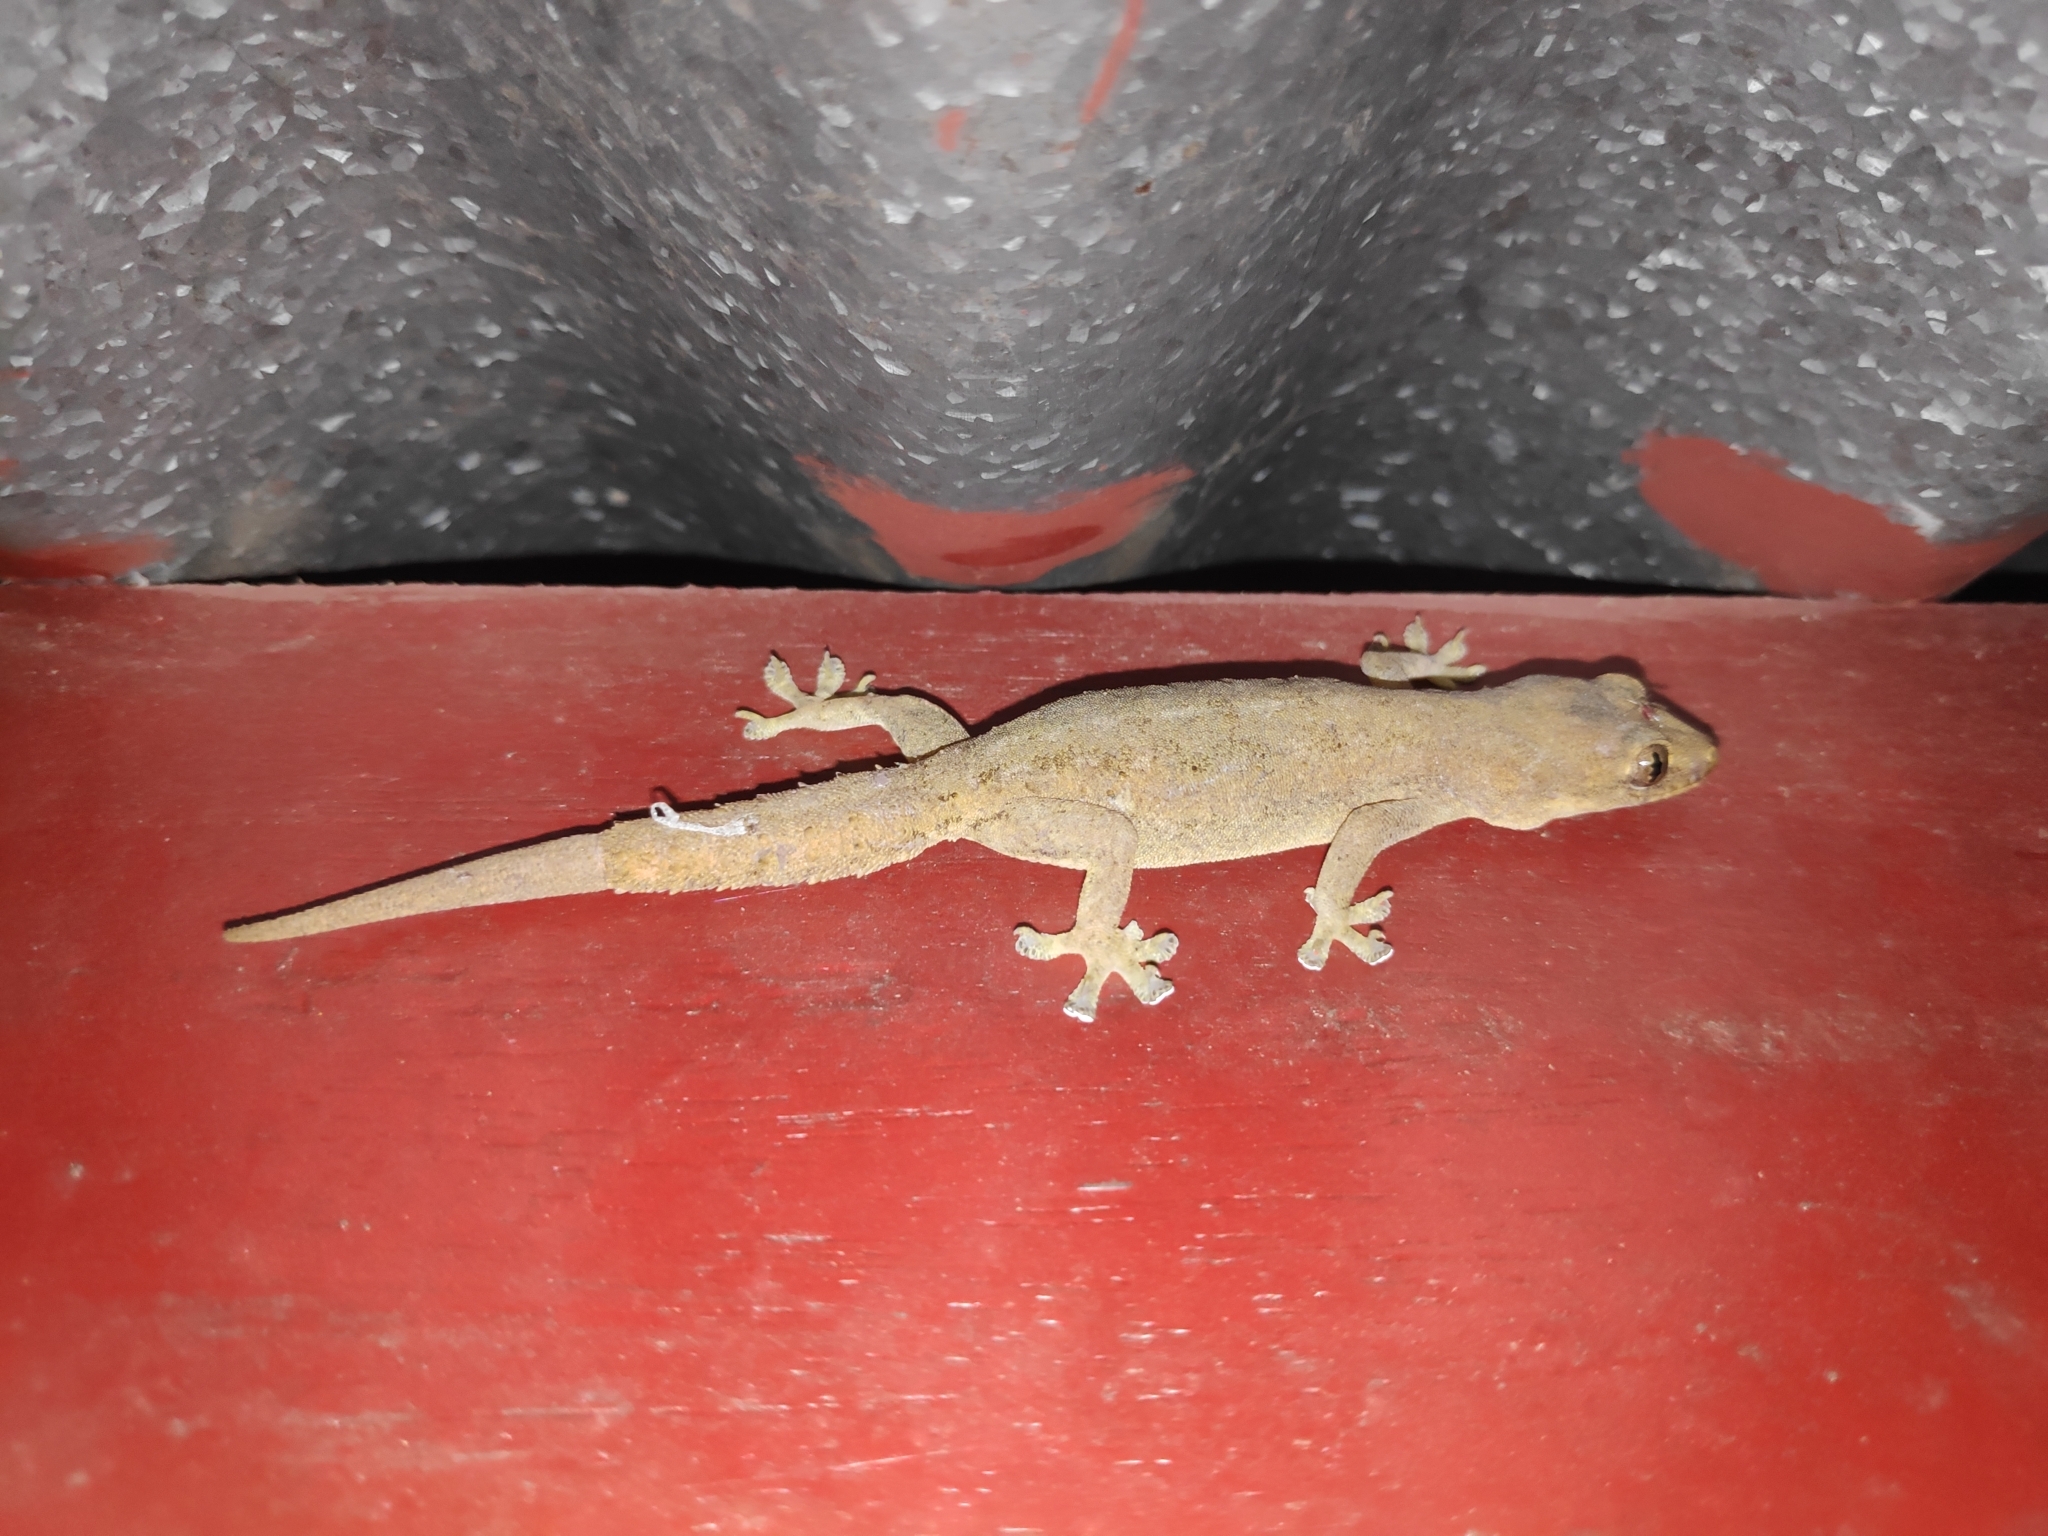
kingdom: Animalia
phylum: Chordata
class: Squamata
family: Gekkonidae
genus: Hemidactylus
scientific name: Hemidactylus frenatus
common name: Common house gecko
